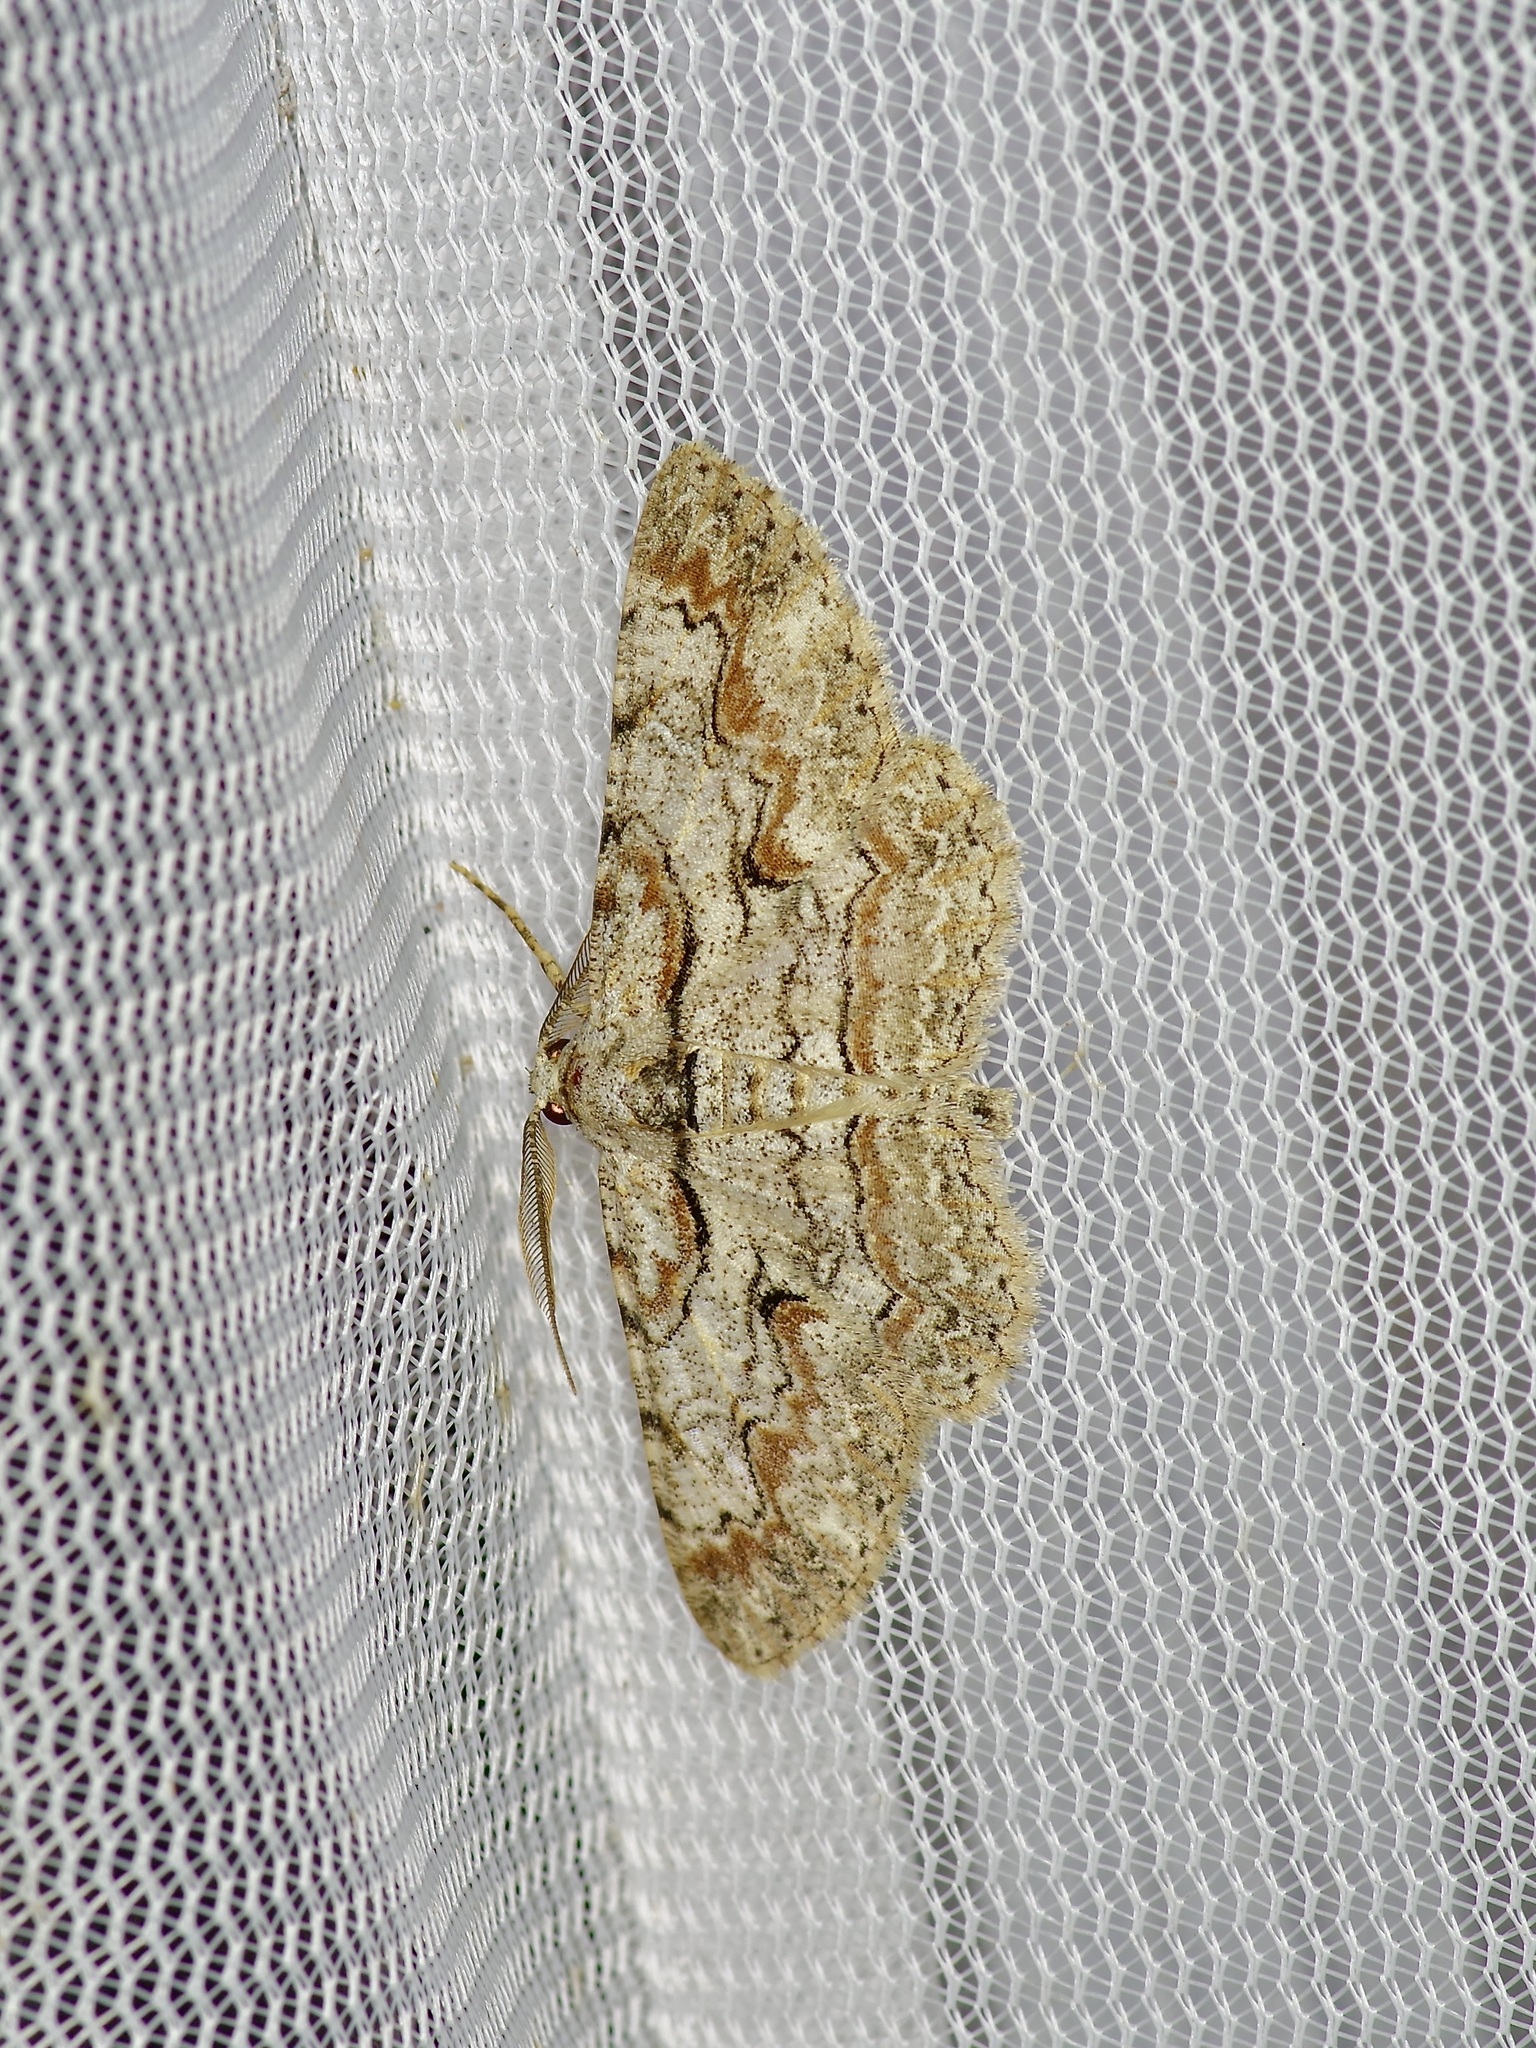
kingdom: Animalia
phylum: Arthropoda
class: Insecta
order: Lepidoptera
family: Geometridae
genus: Iridopsis
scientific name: Iridopsis defectaria
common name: Brown-shaded gray
